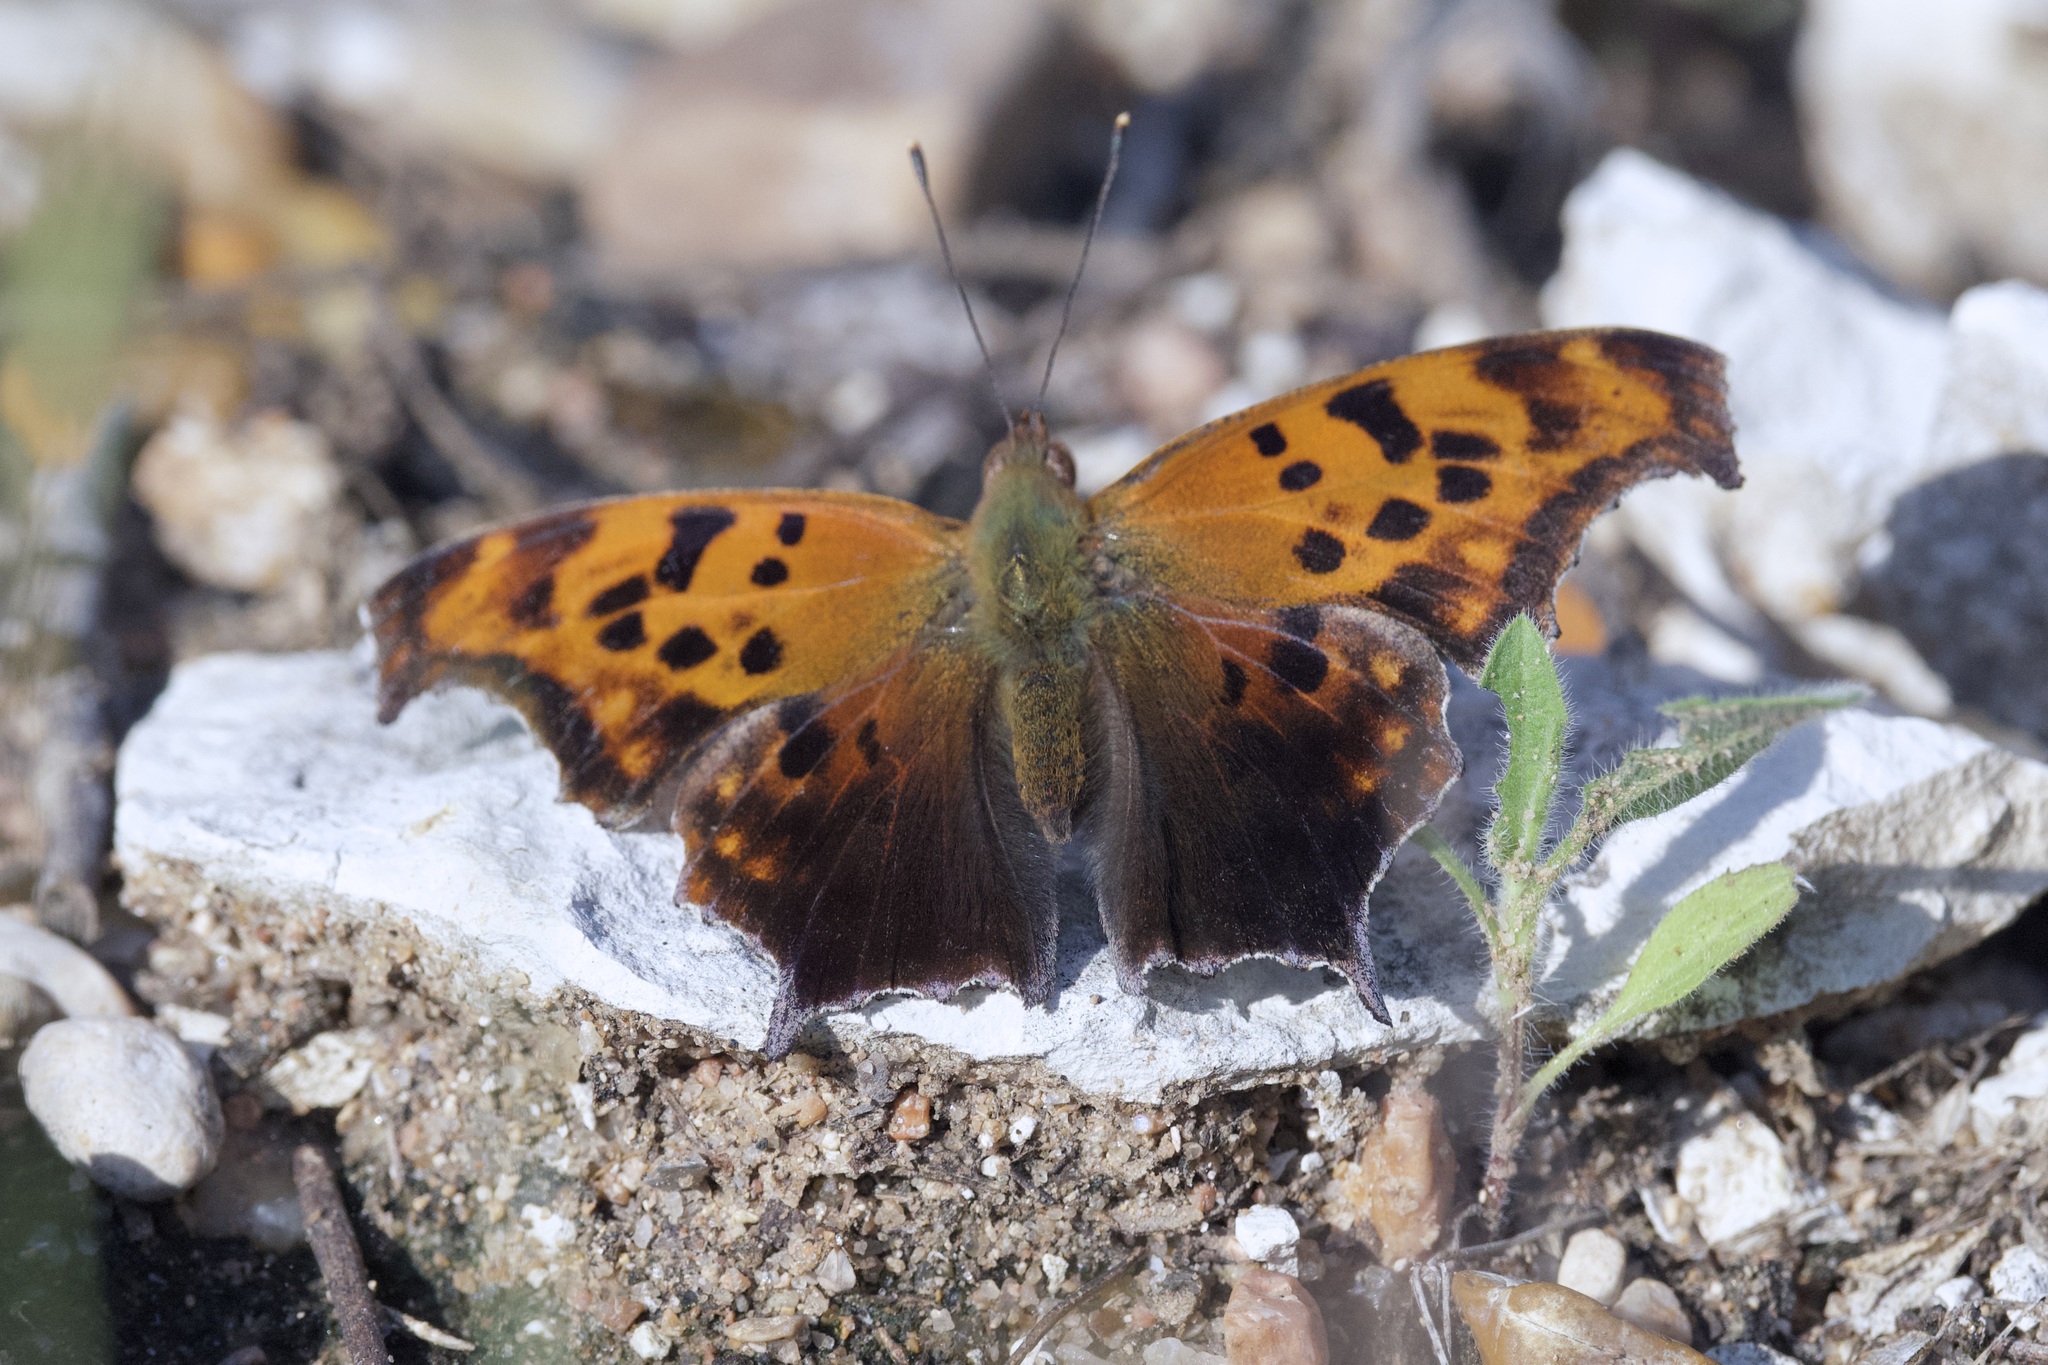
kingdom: Animalia
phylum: Arthropoda
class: Insecta
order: Lepidoptera
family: Nymphalidae
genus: Polygonia
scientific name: Polygonia interrogationis
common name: Question mark
